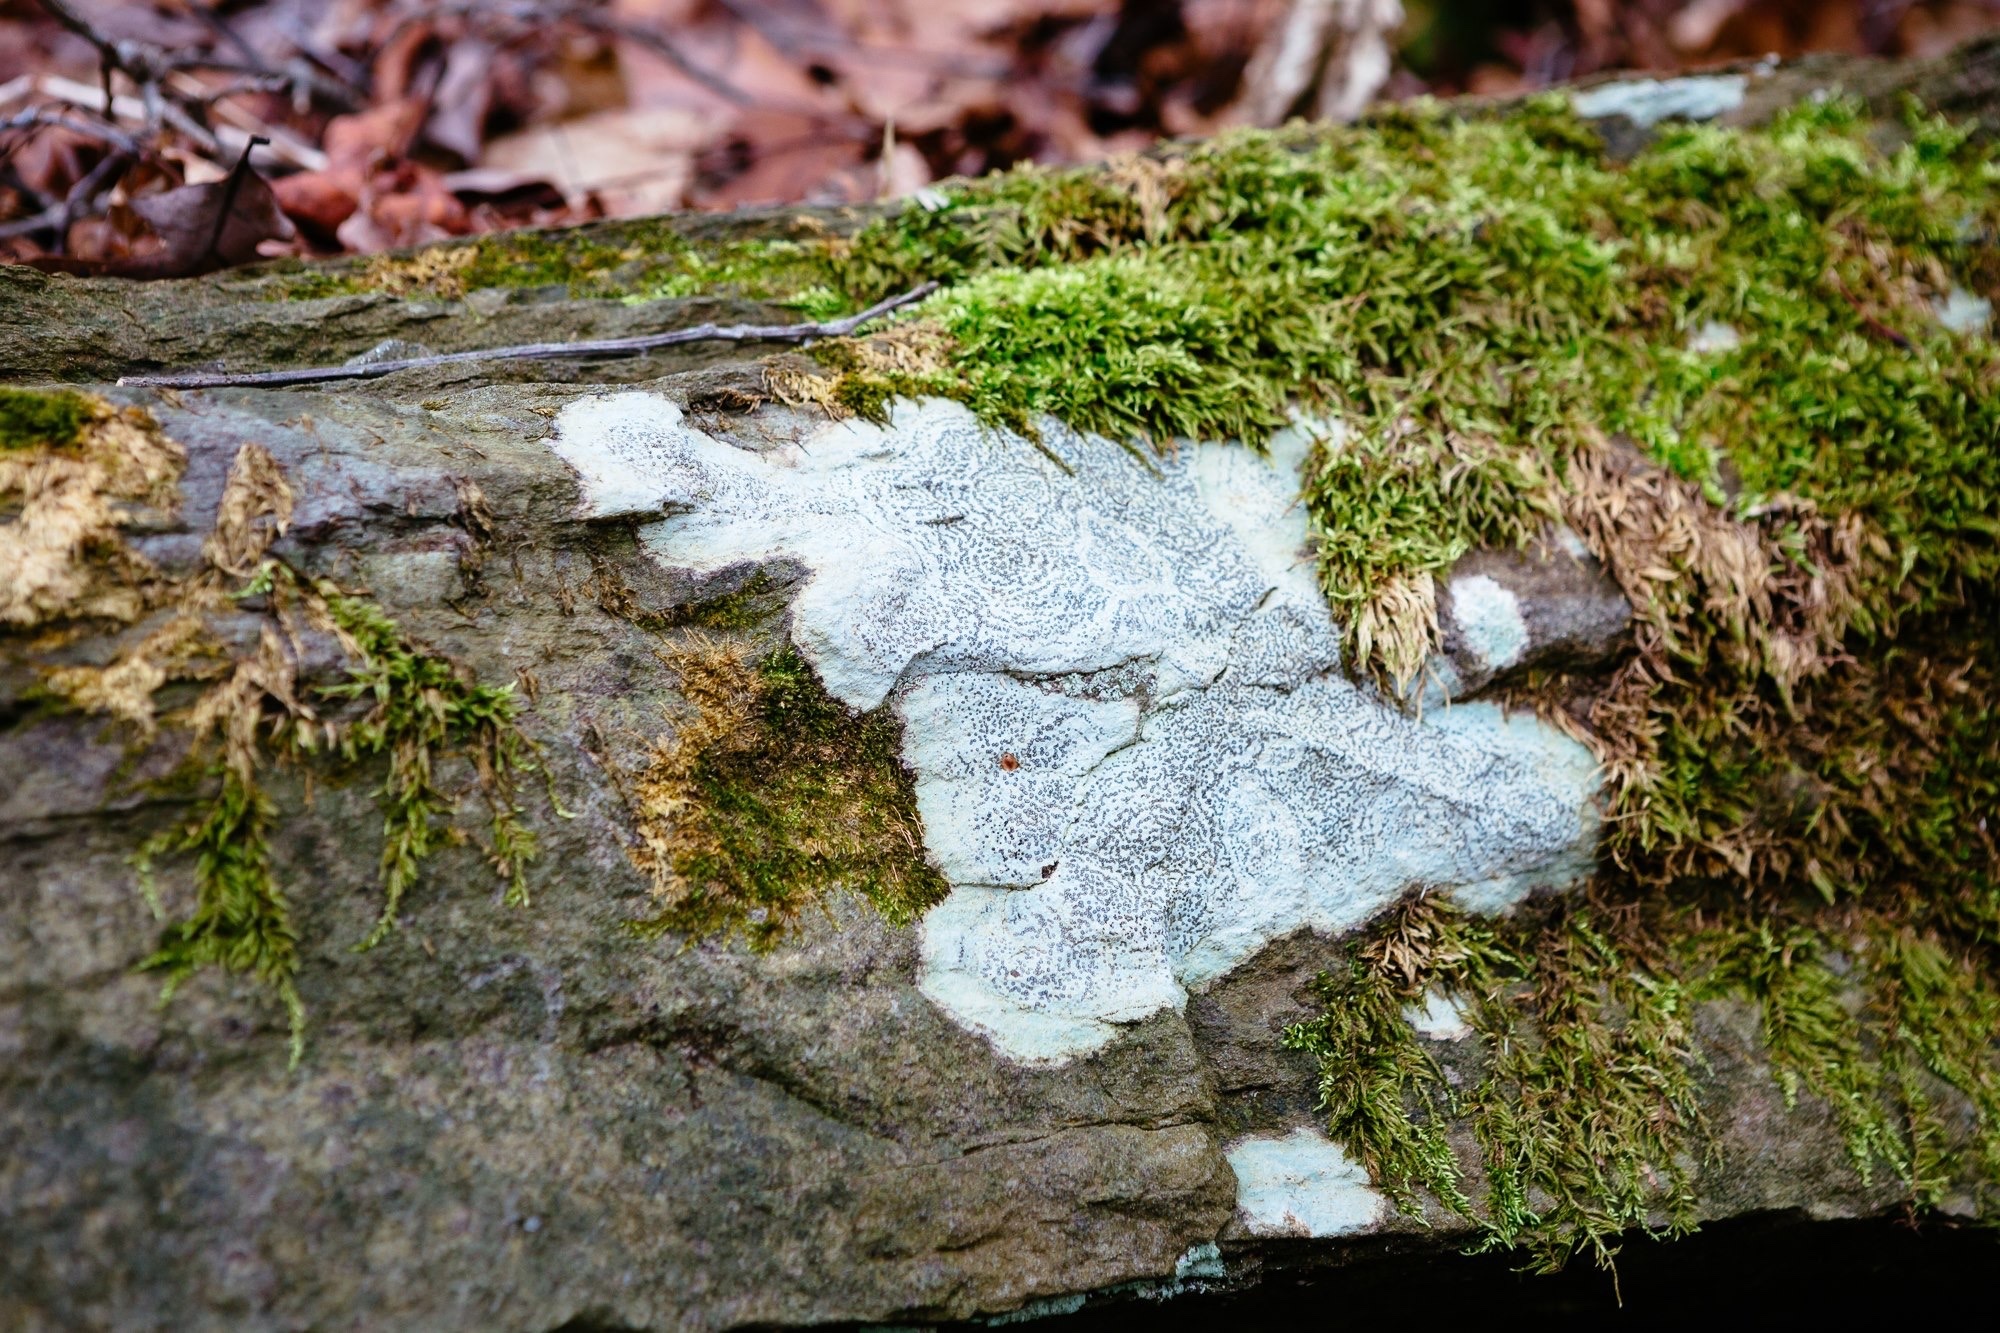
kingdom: Fungi
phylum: Ascomycota
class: Lecanoromycetes
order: Lecideales
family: Lecideaceae
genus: Porpidia
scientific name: Porpidia crustulata
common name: Concentric boulder lichen
